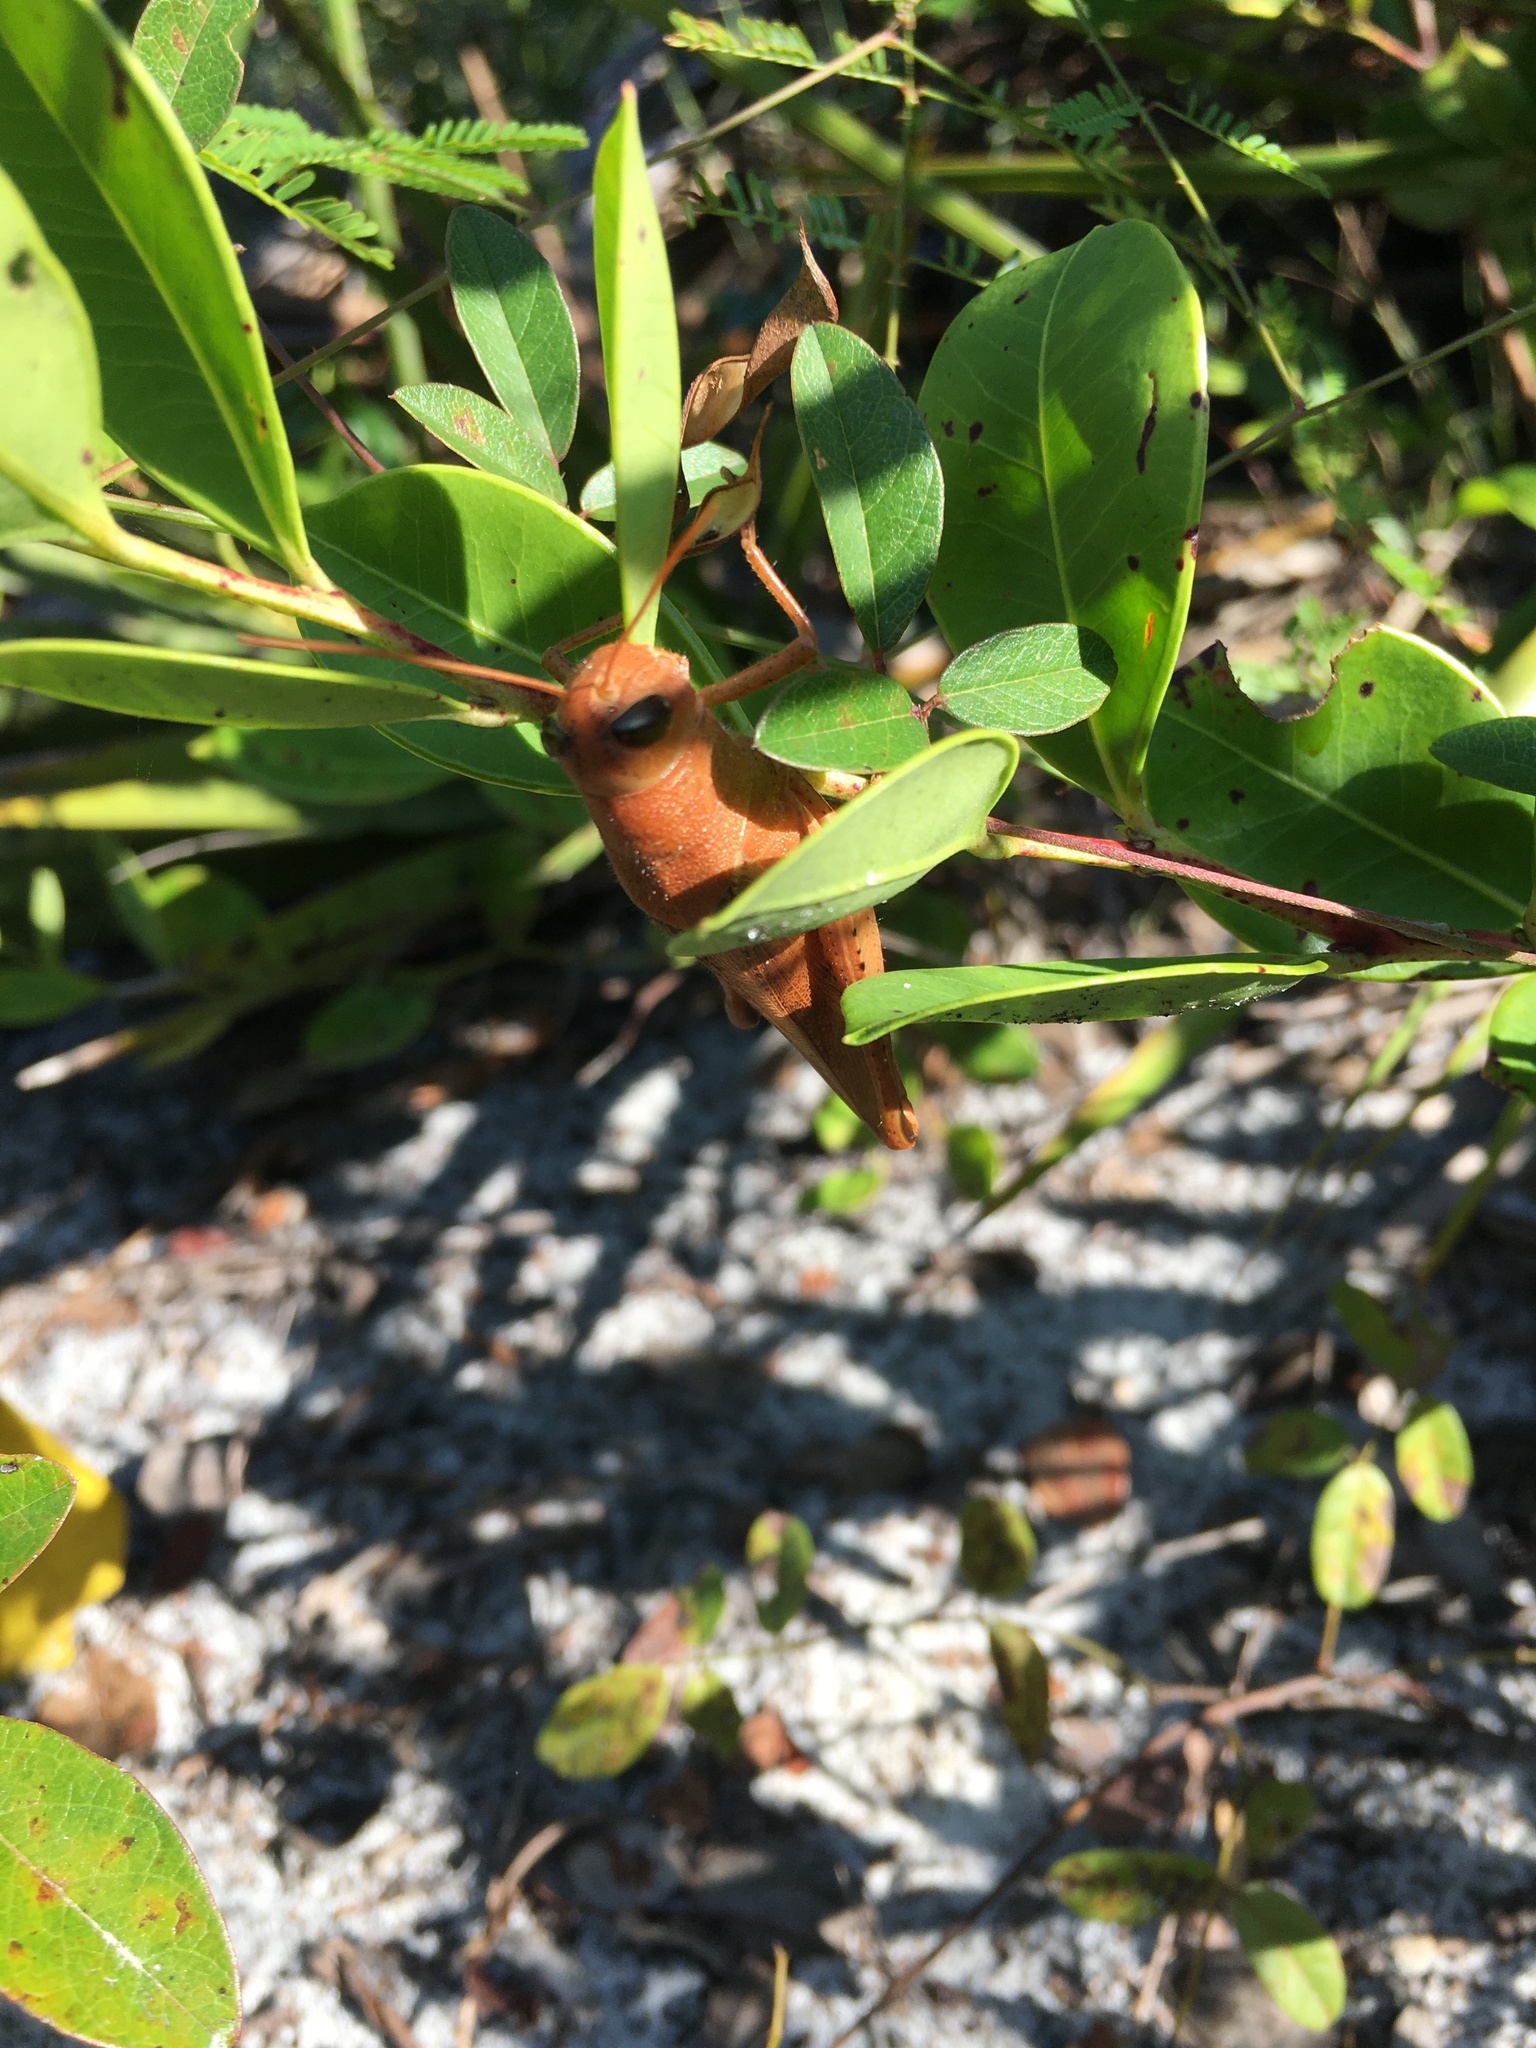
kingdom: Animalia
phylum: Arthropoda
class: Insecta
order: Orthoptera
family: Acrididae
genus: Schistocerca
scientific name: Schistocerca rubiginosa
